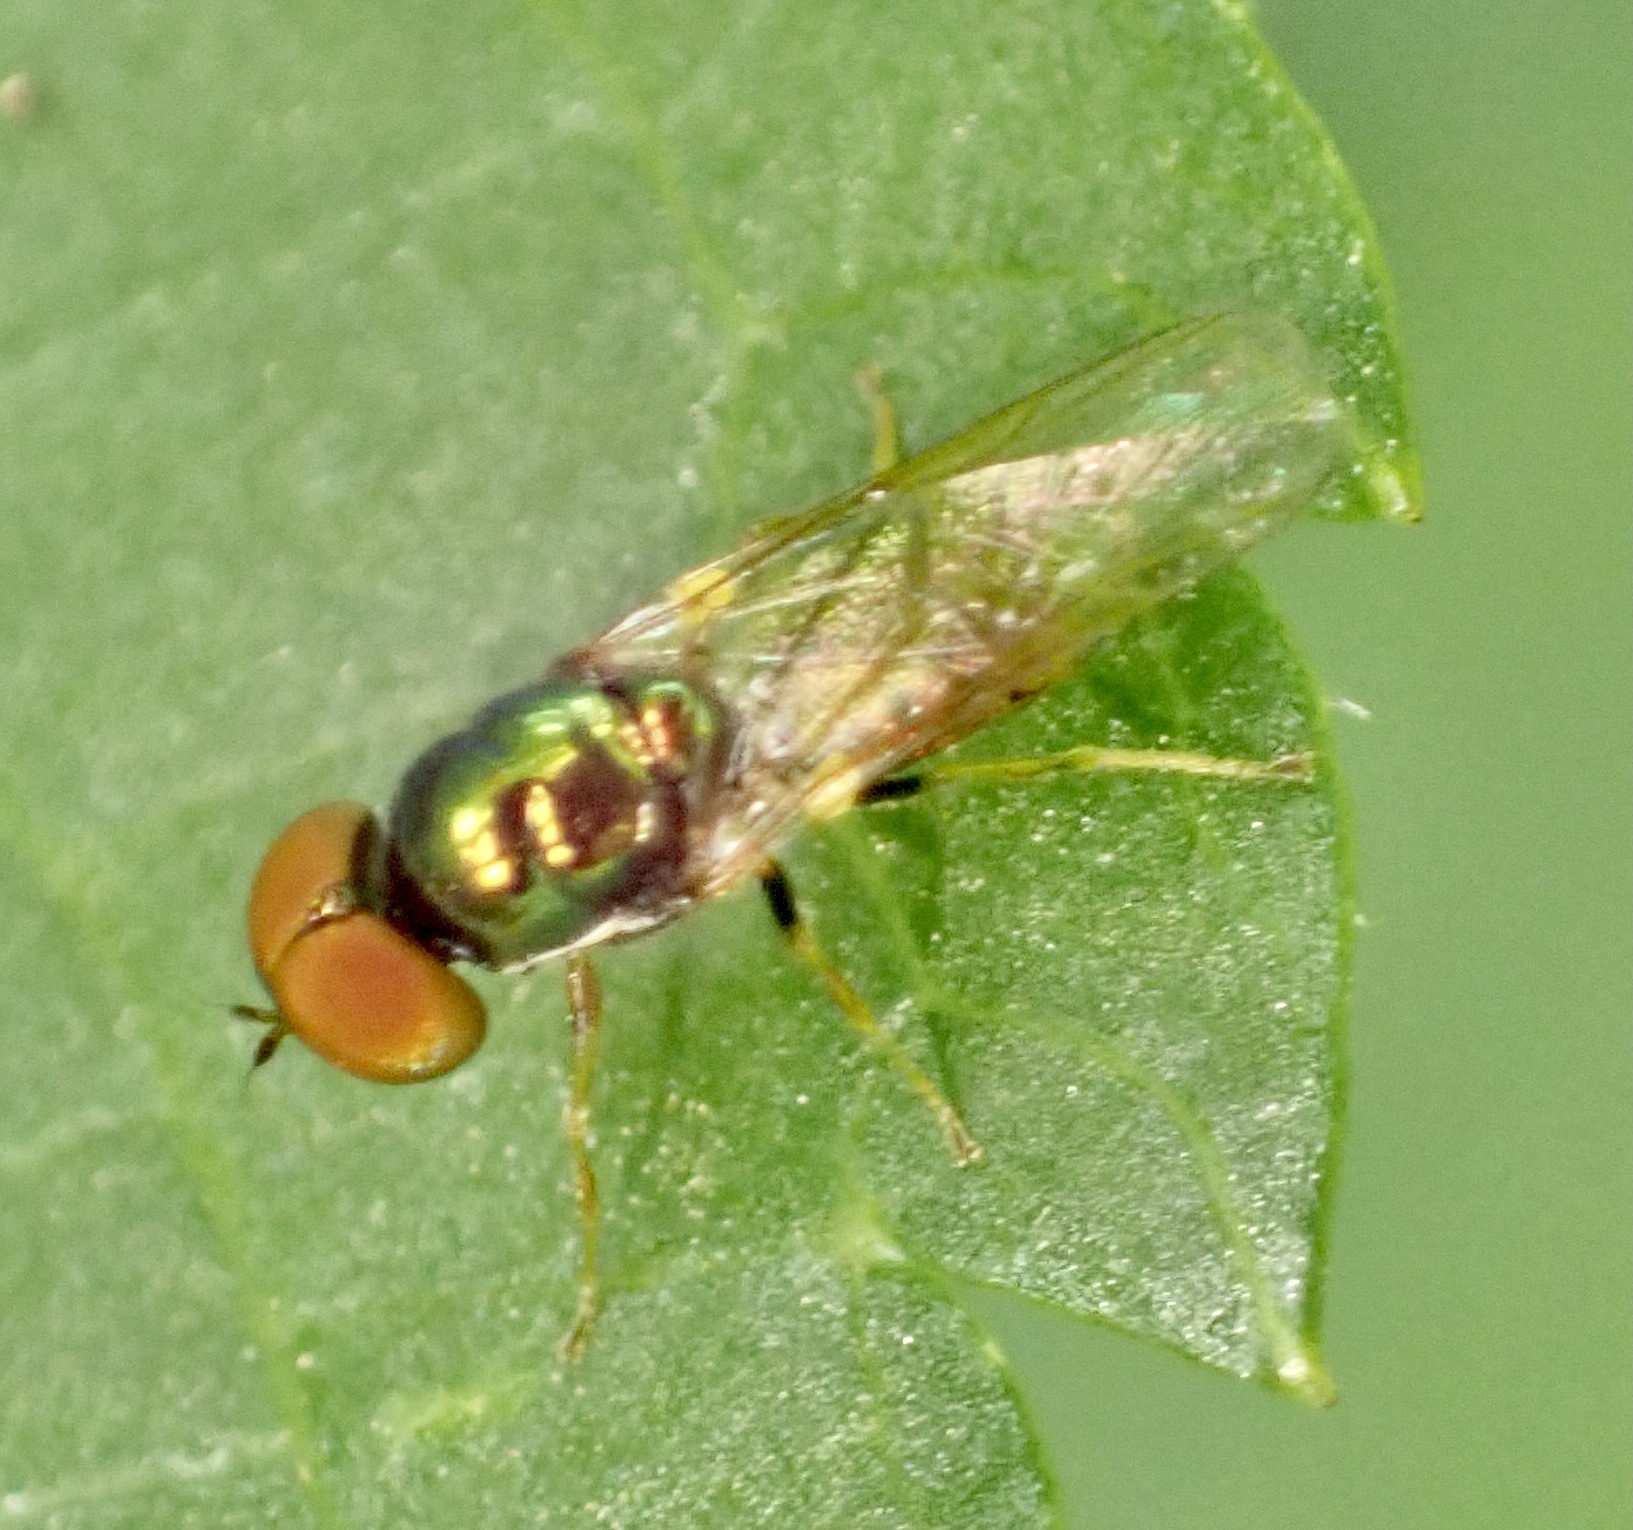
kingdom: Animalia
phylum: Arthropoda
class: Insecta
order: Diptera
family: Stratiomyidae
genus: Microchrysa
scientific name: Microchrysa flavicornis
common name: Soldier fly
